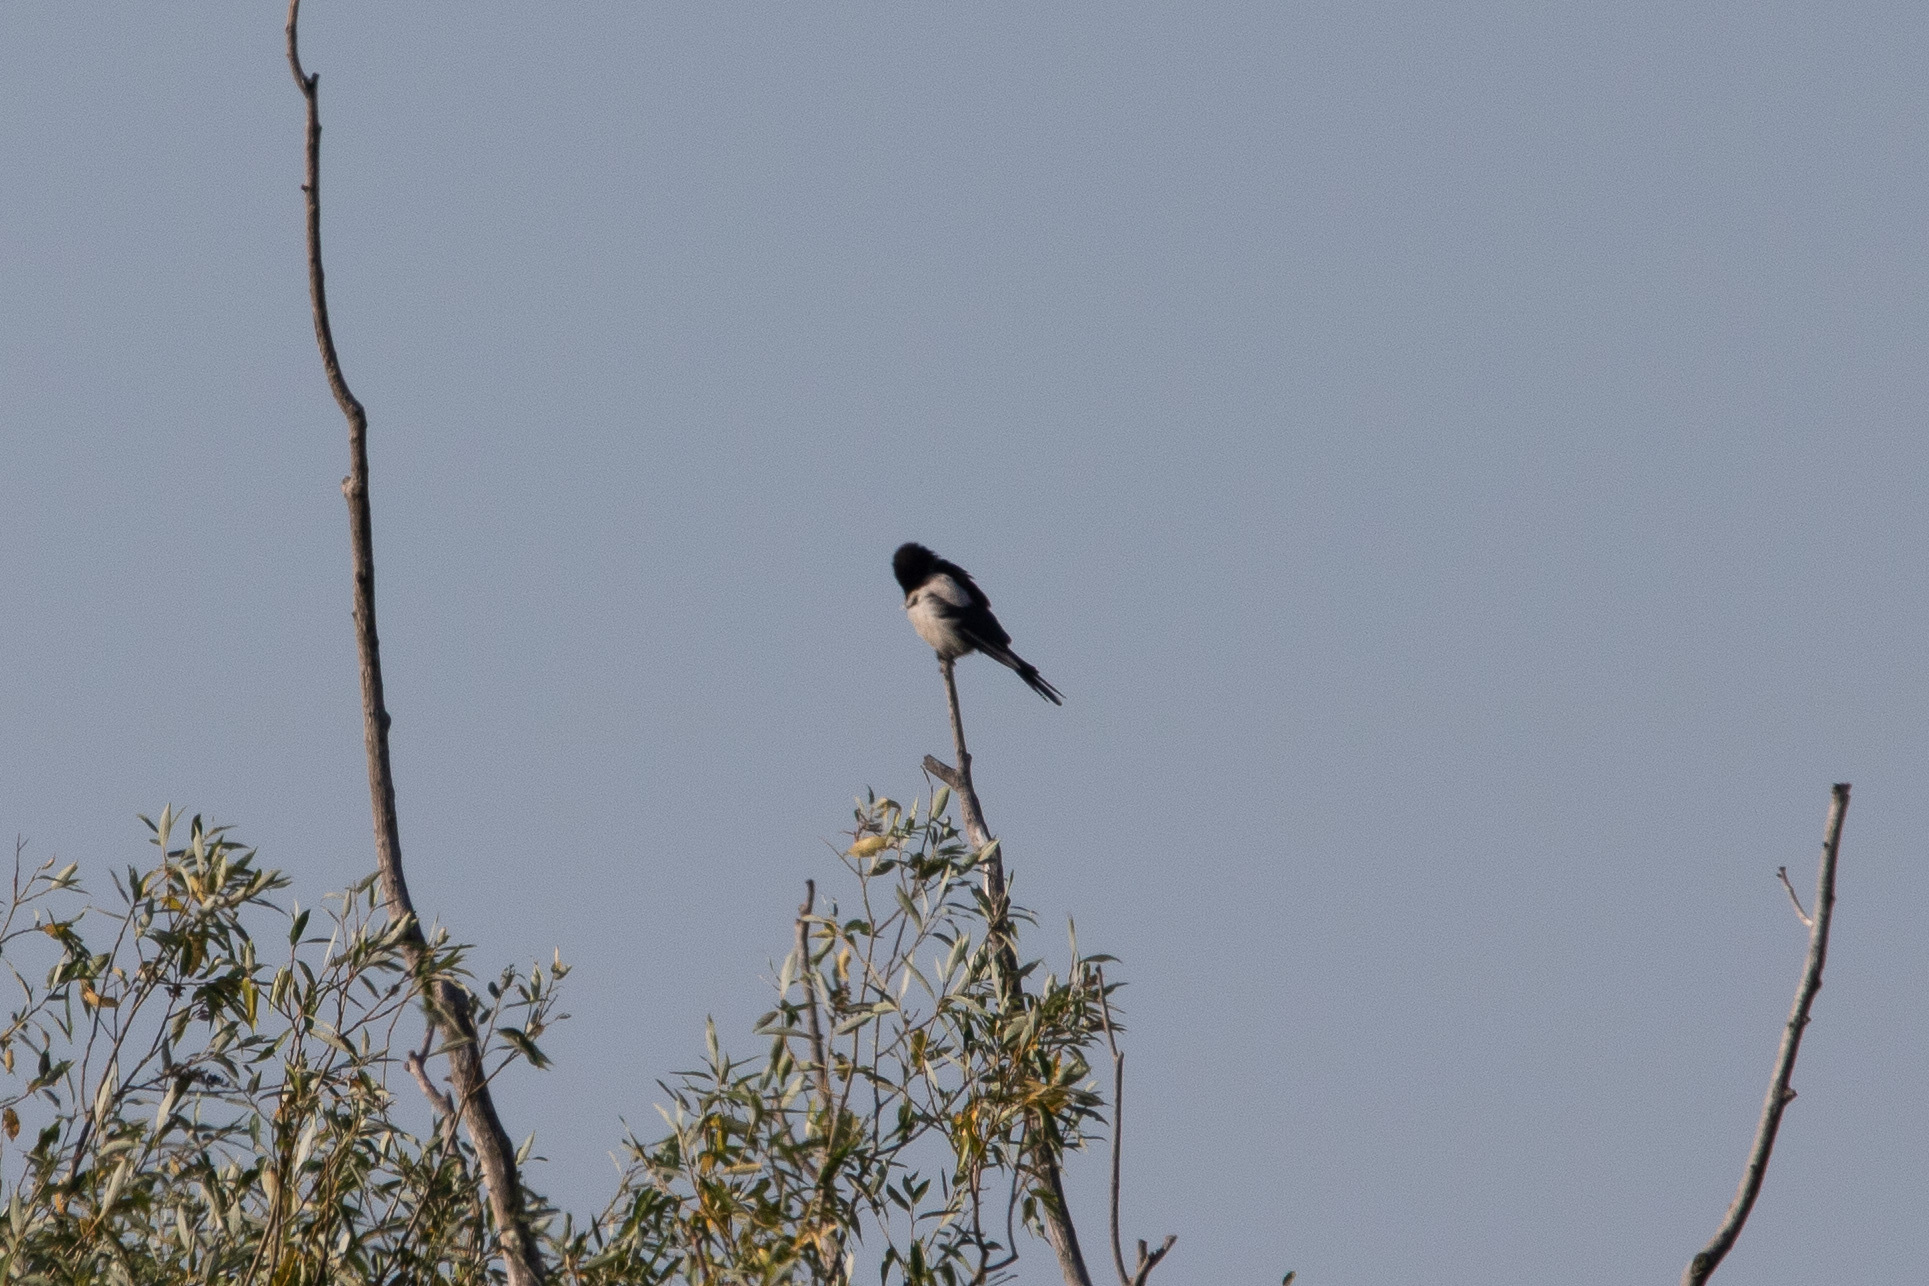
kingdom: Animalia
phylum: Chordata
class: Aves
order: Passeriformes
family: Corvidae
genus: Pica
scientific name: Pica pica
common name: Eurasian magpie
